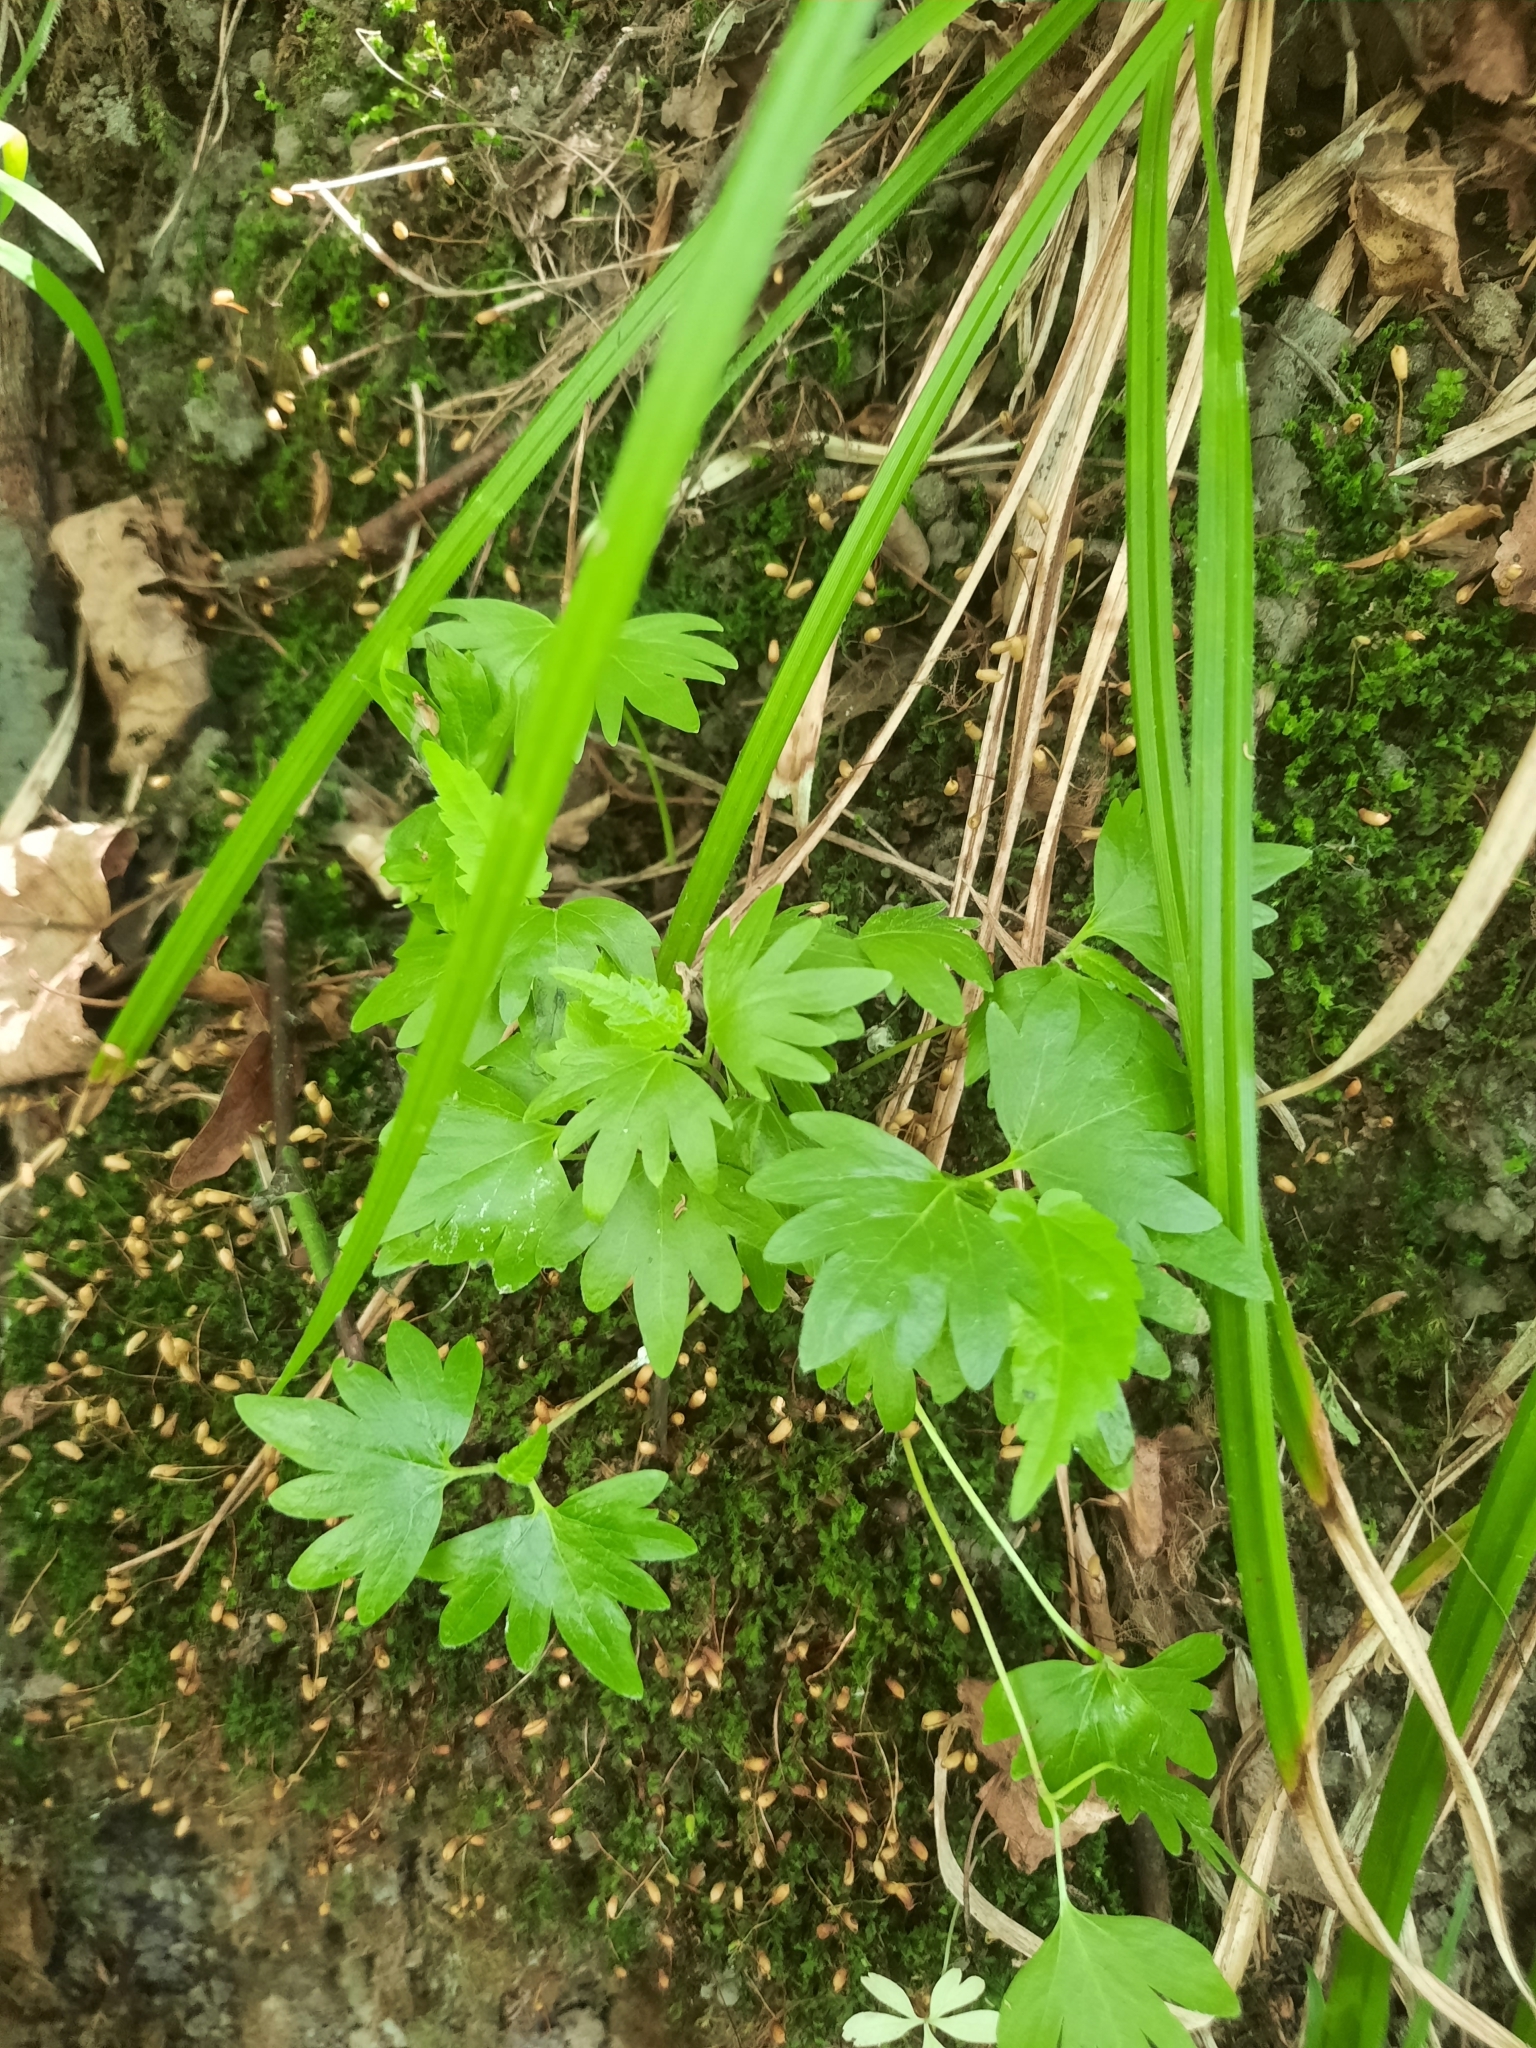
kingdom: Plantae
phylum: Tracheophyta
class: Magnoliopsida
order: Malvales
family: Malvaceae
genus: Tilia
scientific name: Tilia cordata
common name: Small-leaved lime
